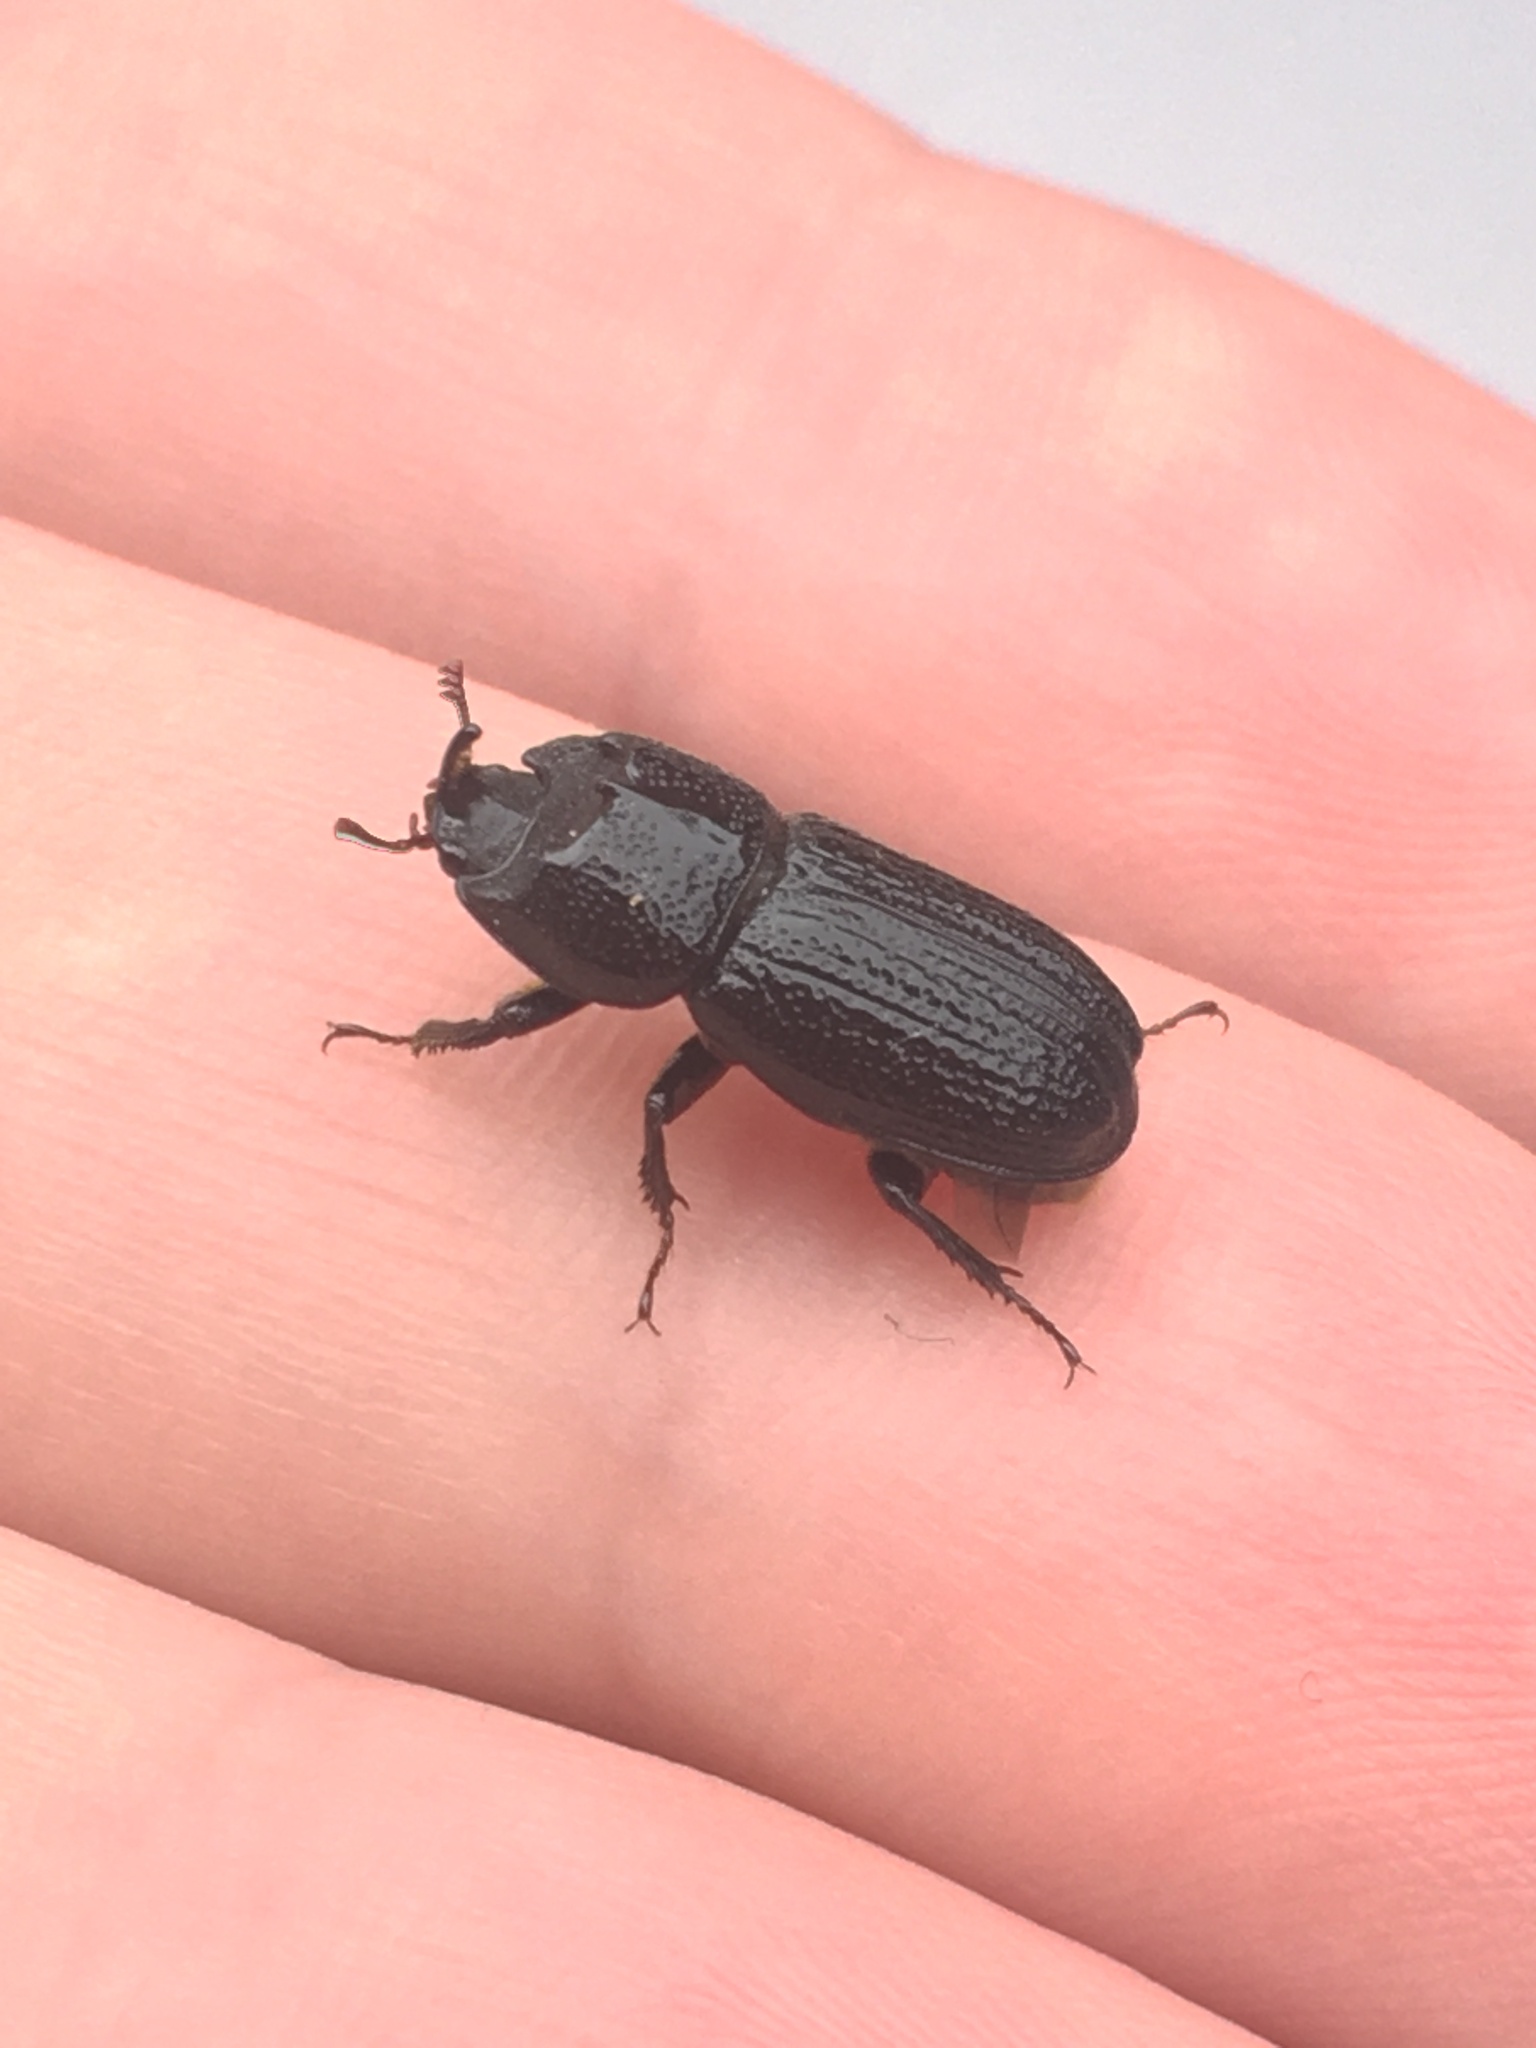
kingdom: Animalia
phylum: Arthropoda
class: Insecta
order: Coleoptera
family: Lucanidae
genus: Sinodendron
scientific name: Sinodendron cylindricum
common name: Rhinoceros beetle
